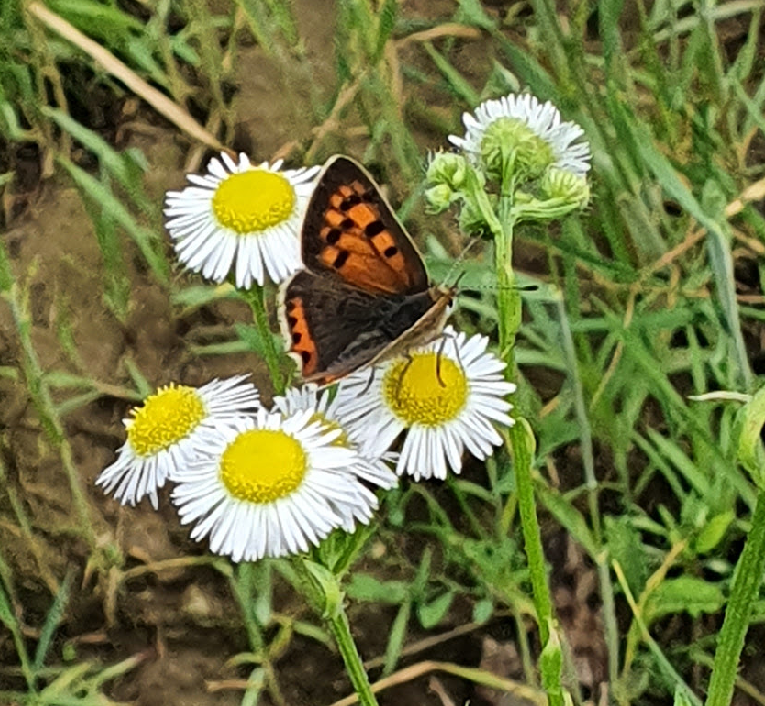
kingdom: Animalia
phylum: Arthropoda
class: Insecta
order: Lepidoptera
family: Lycaenidae
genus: Lycaena
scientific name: Lycaena phlaeas
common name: Small copper
